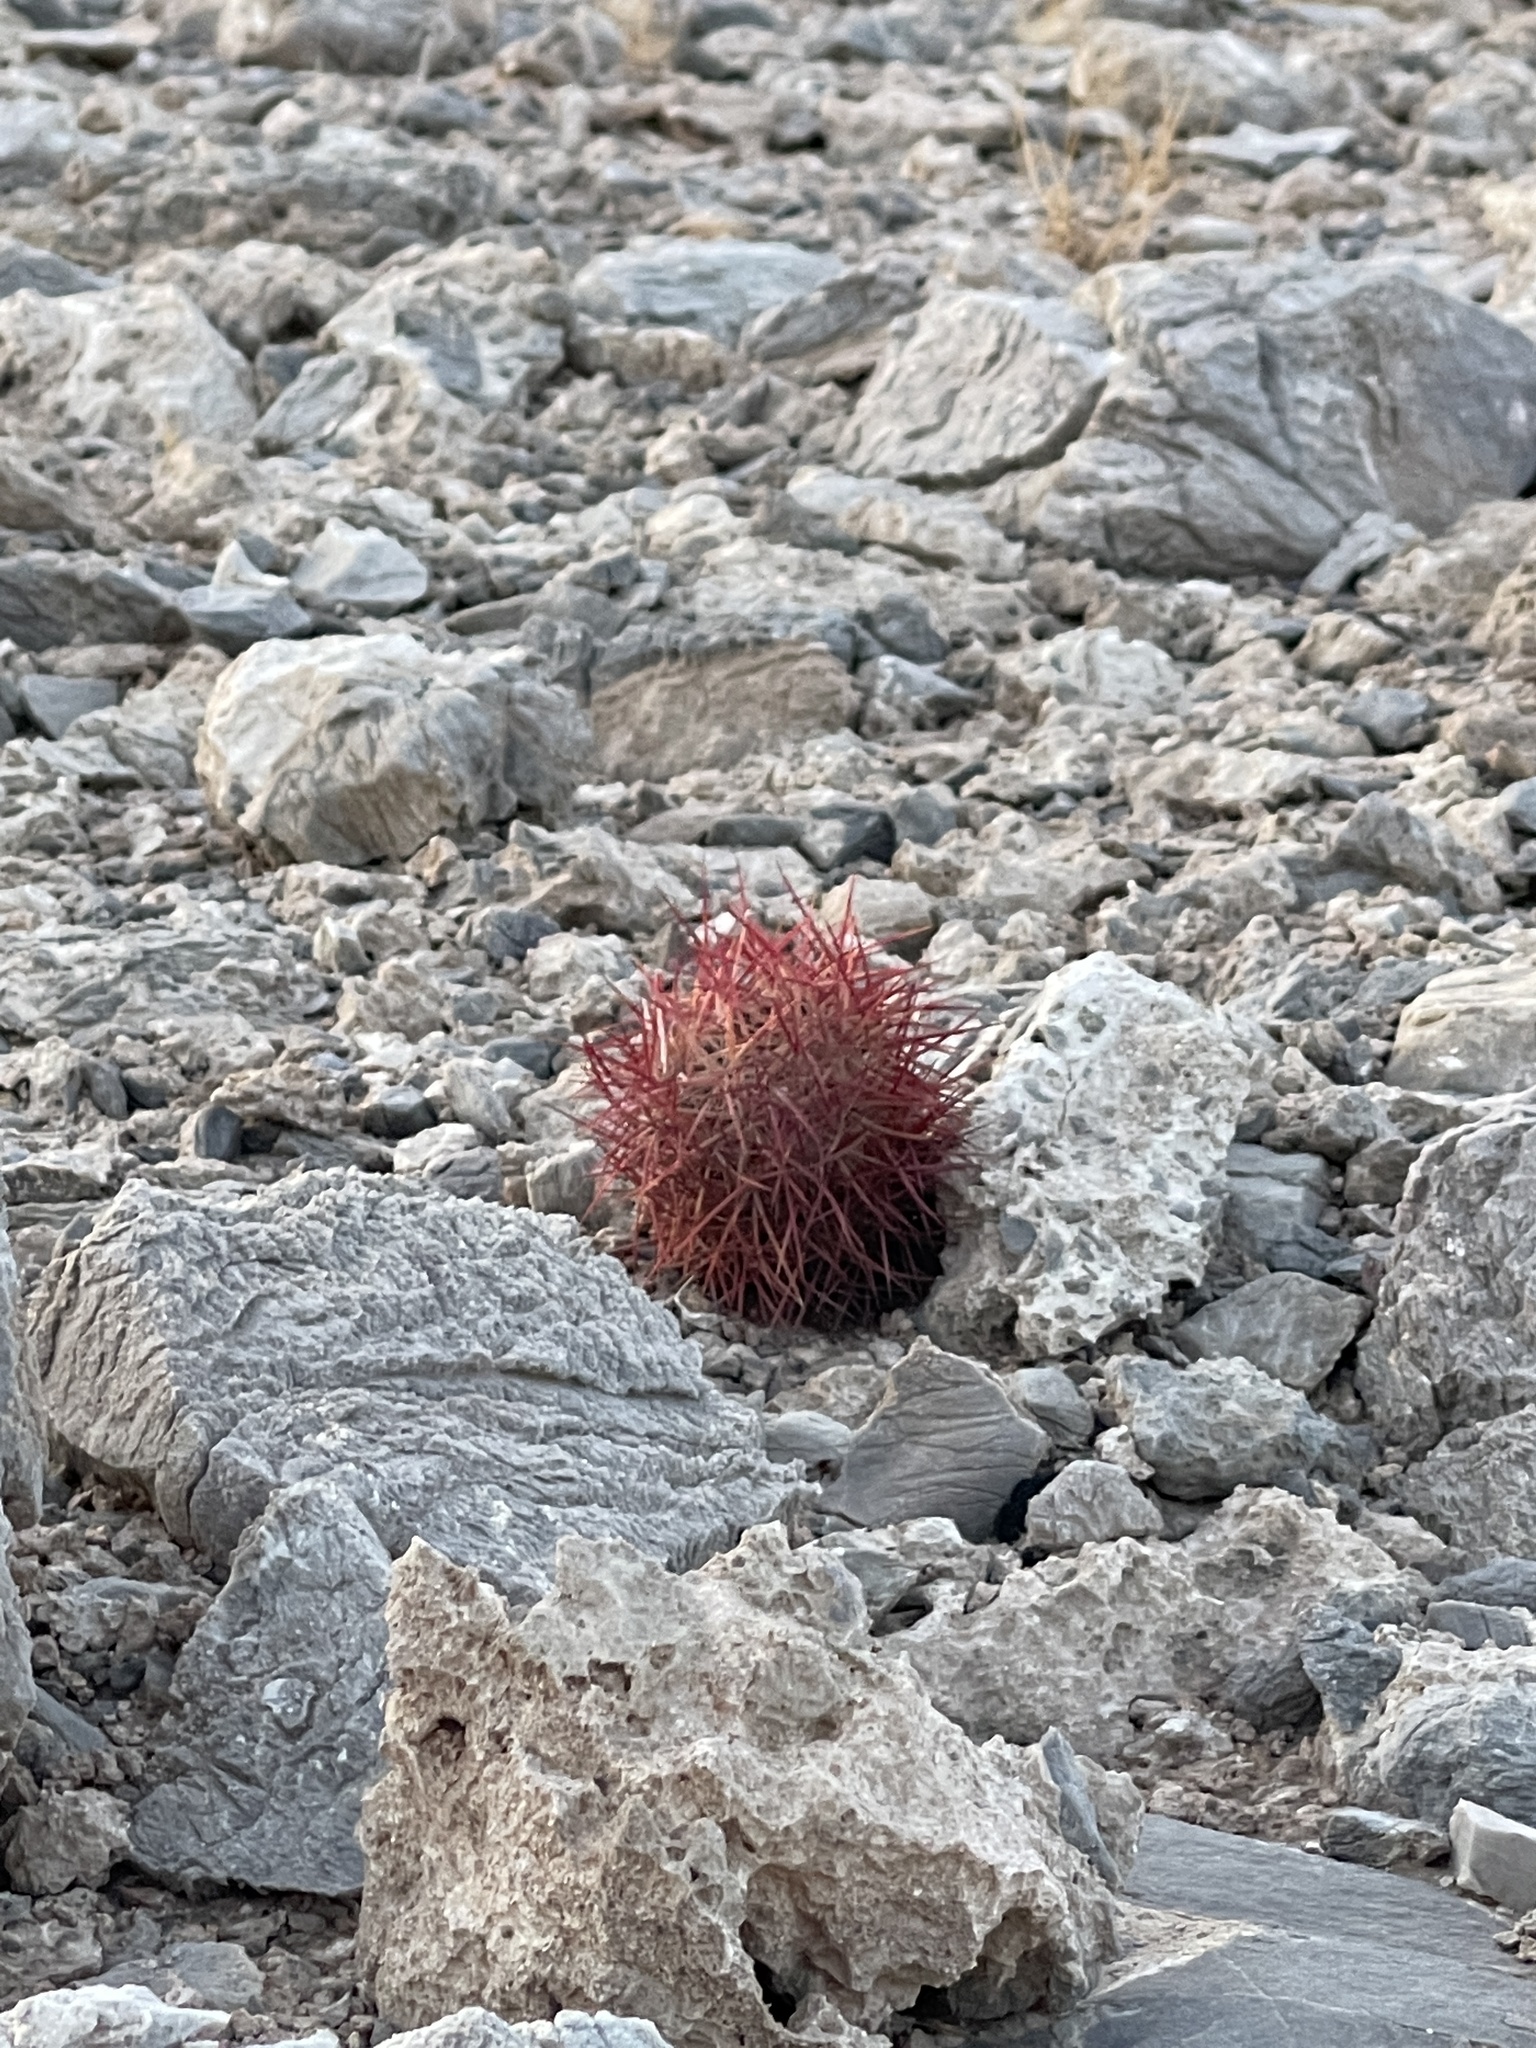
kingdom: Plantae
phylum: Tracheophyta
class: Magnoliopsida
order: Caryophyllales
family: Cactaceae
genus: Sclerocactus
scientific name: Sclerocactus johnsonii
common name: Eight-spine fishhook cactus
